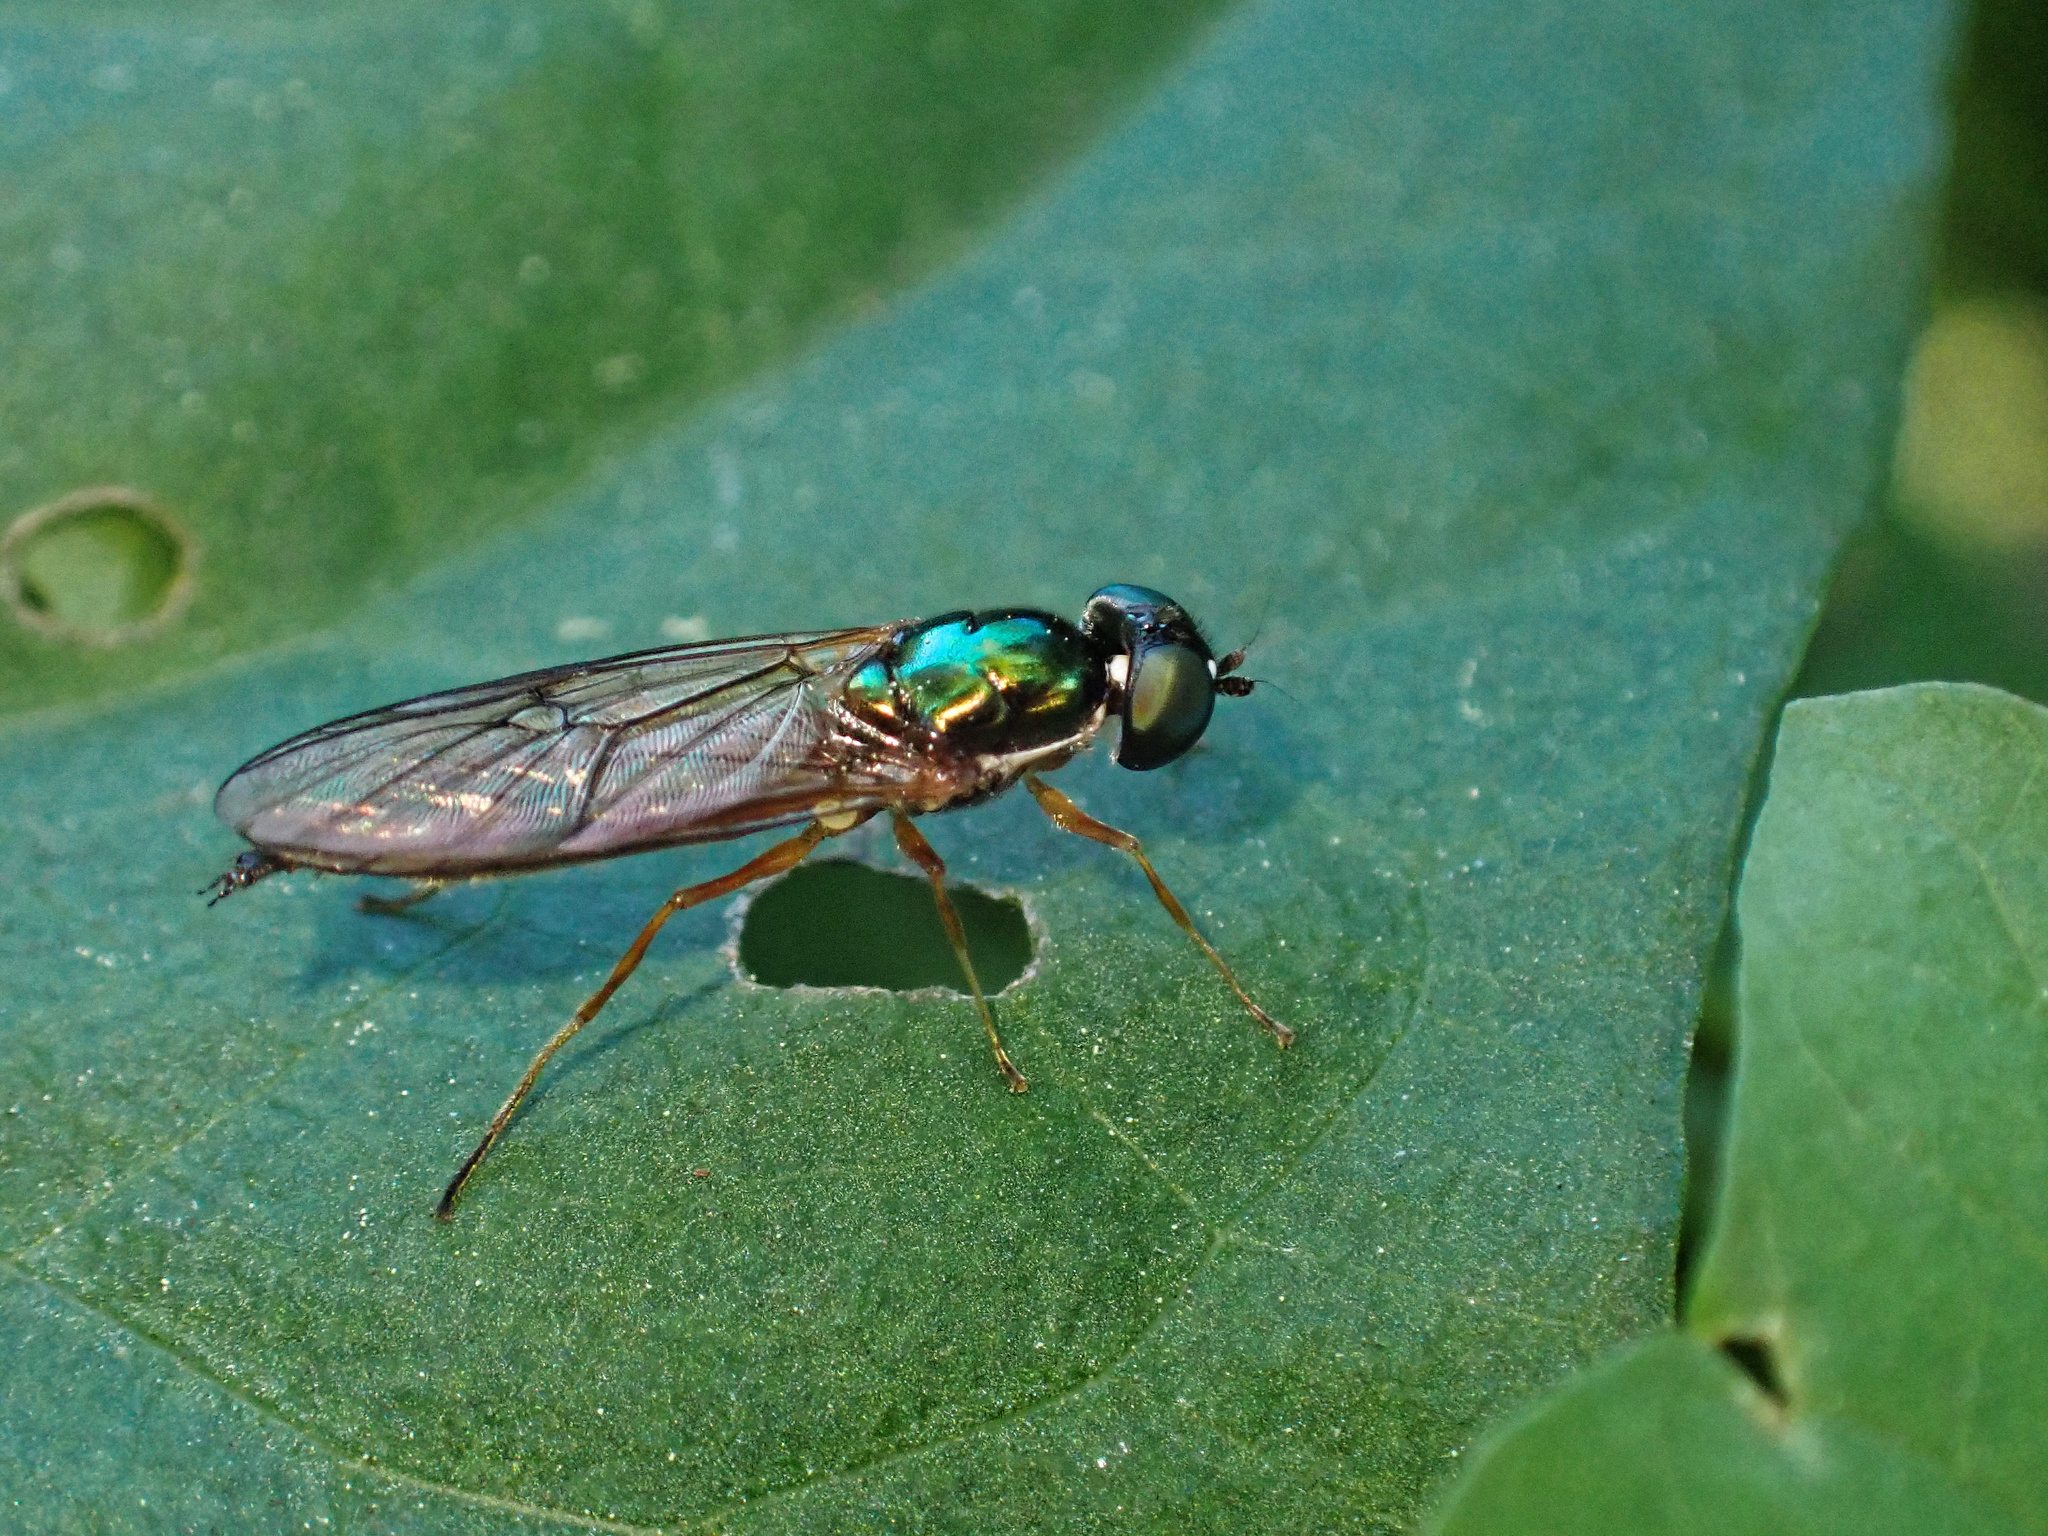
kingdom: Animalia
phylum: Arthropoda
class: Insecta
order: Diptera
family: Stratiomyidae
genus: Sargus
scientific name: Sargus bipunctatus
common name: Twin-spot centurion
